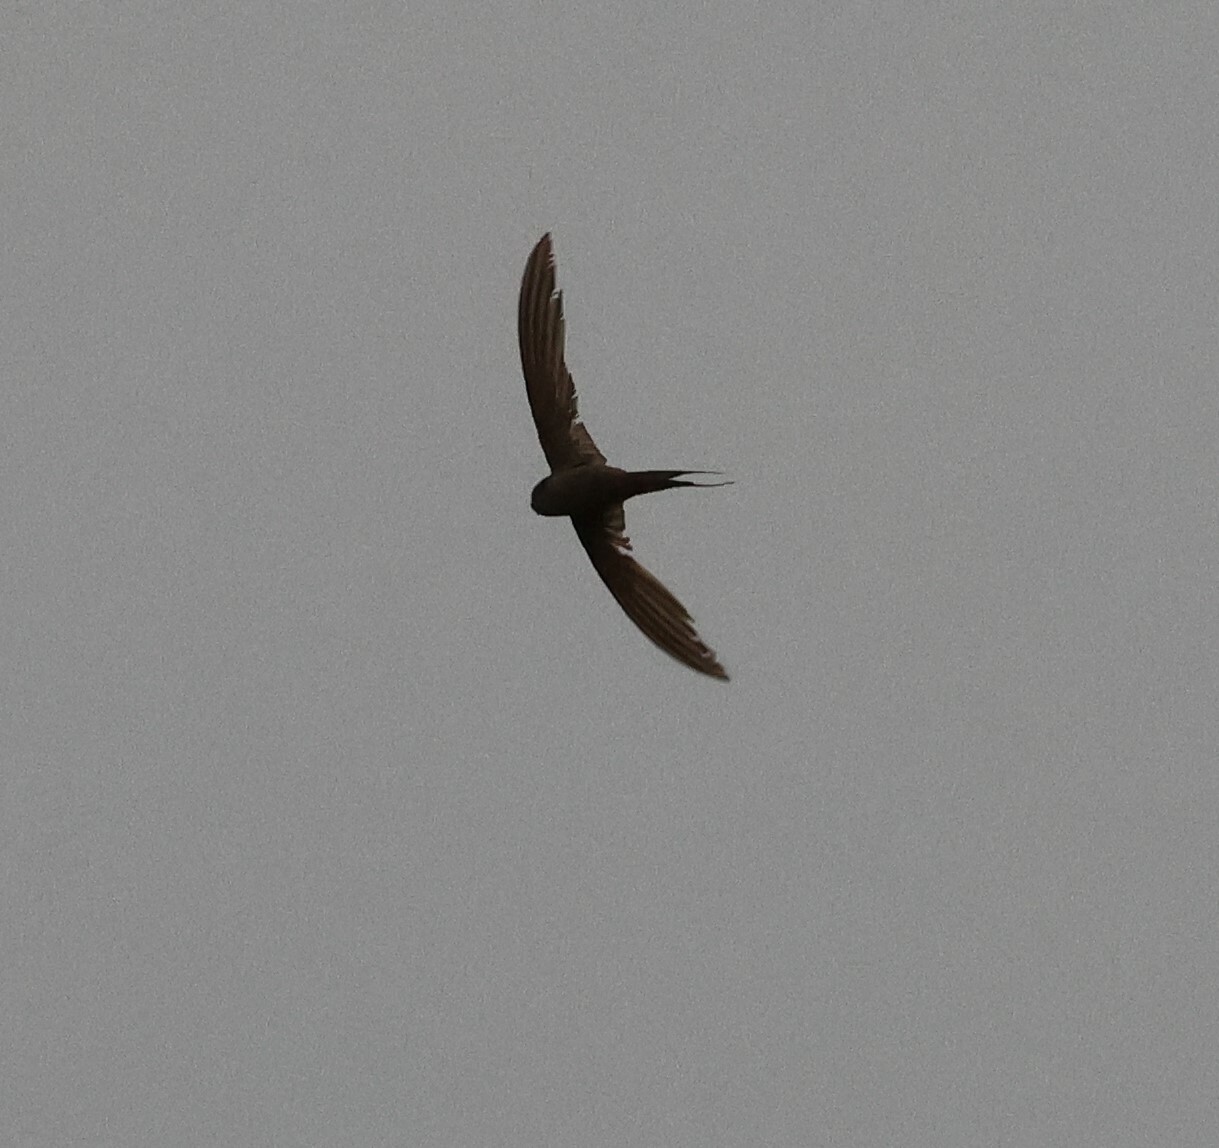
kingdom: Animalia
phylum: Chordata
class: Aves
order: Apodiformes
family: Apodidae
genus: Cypsiurus
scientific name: Cypsiurus parvus
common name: African palm swift
